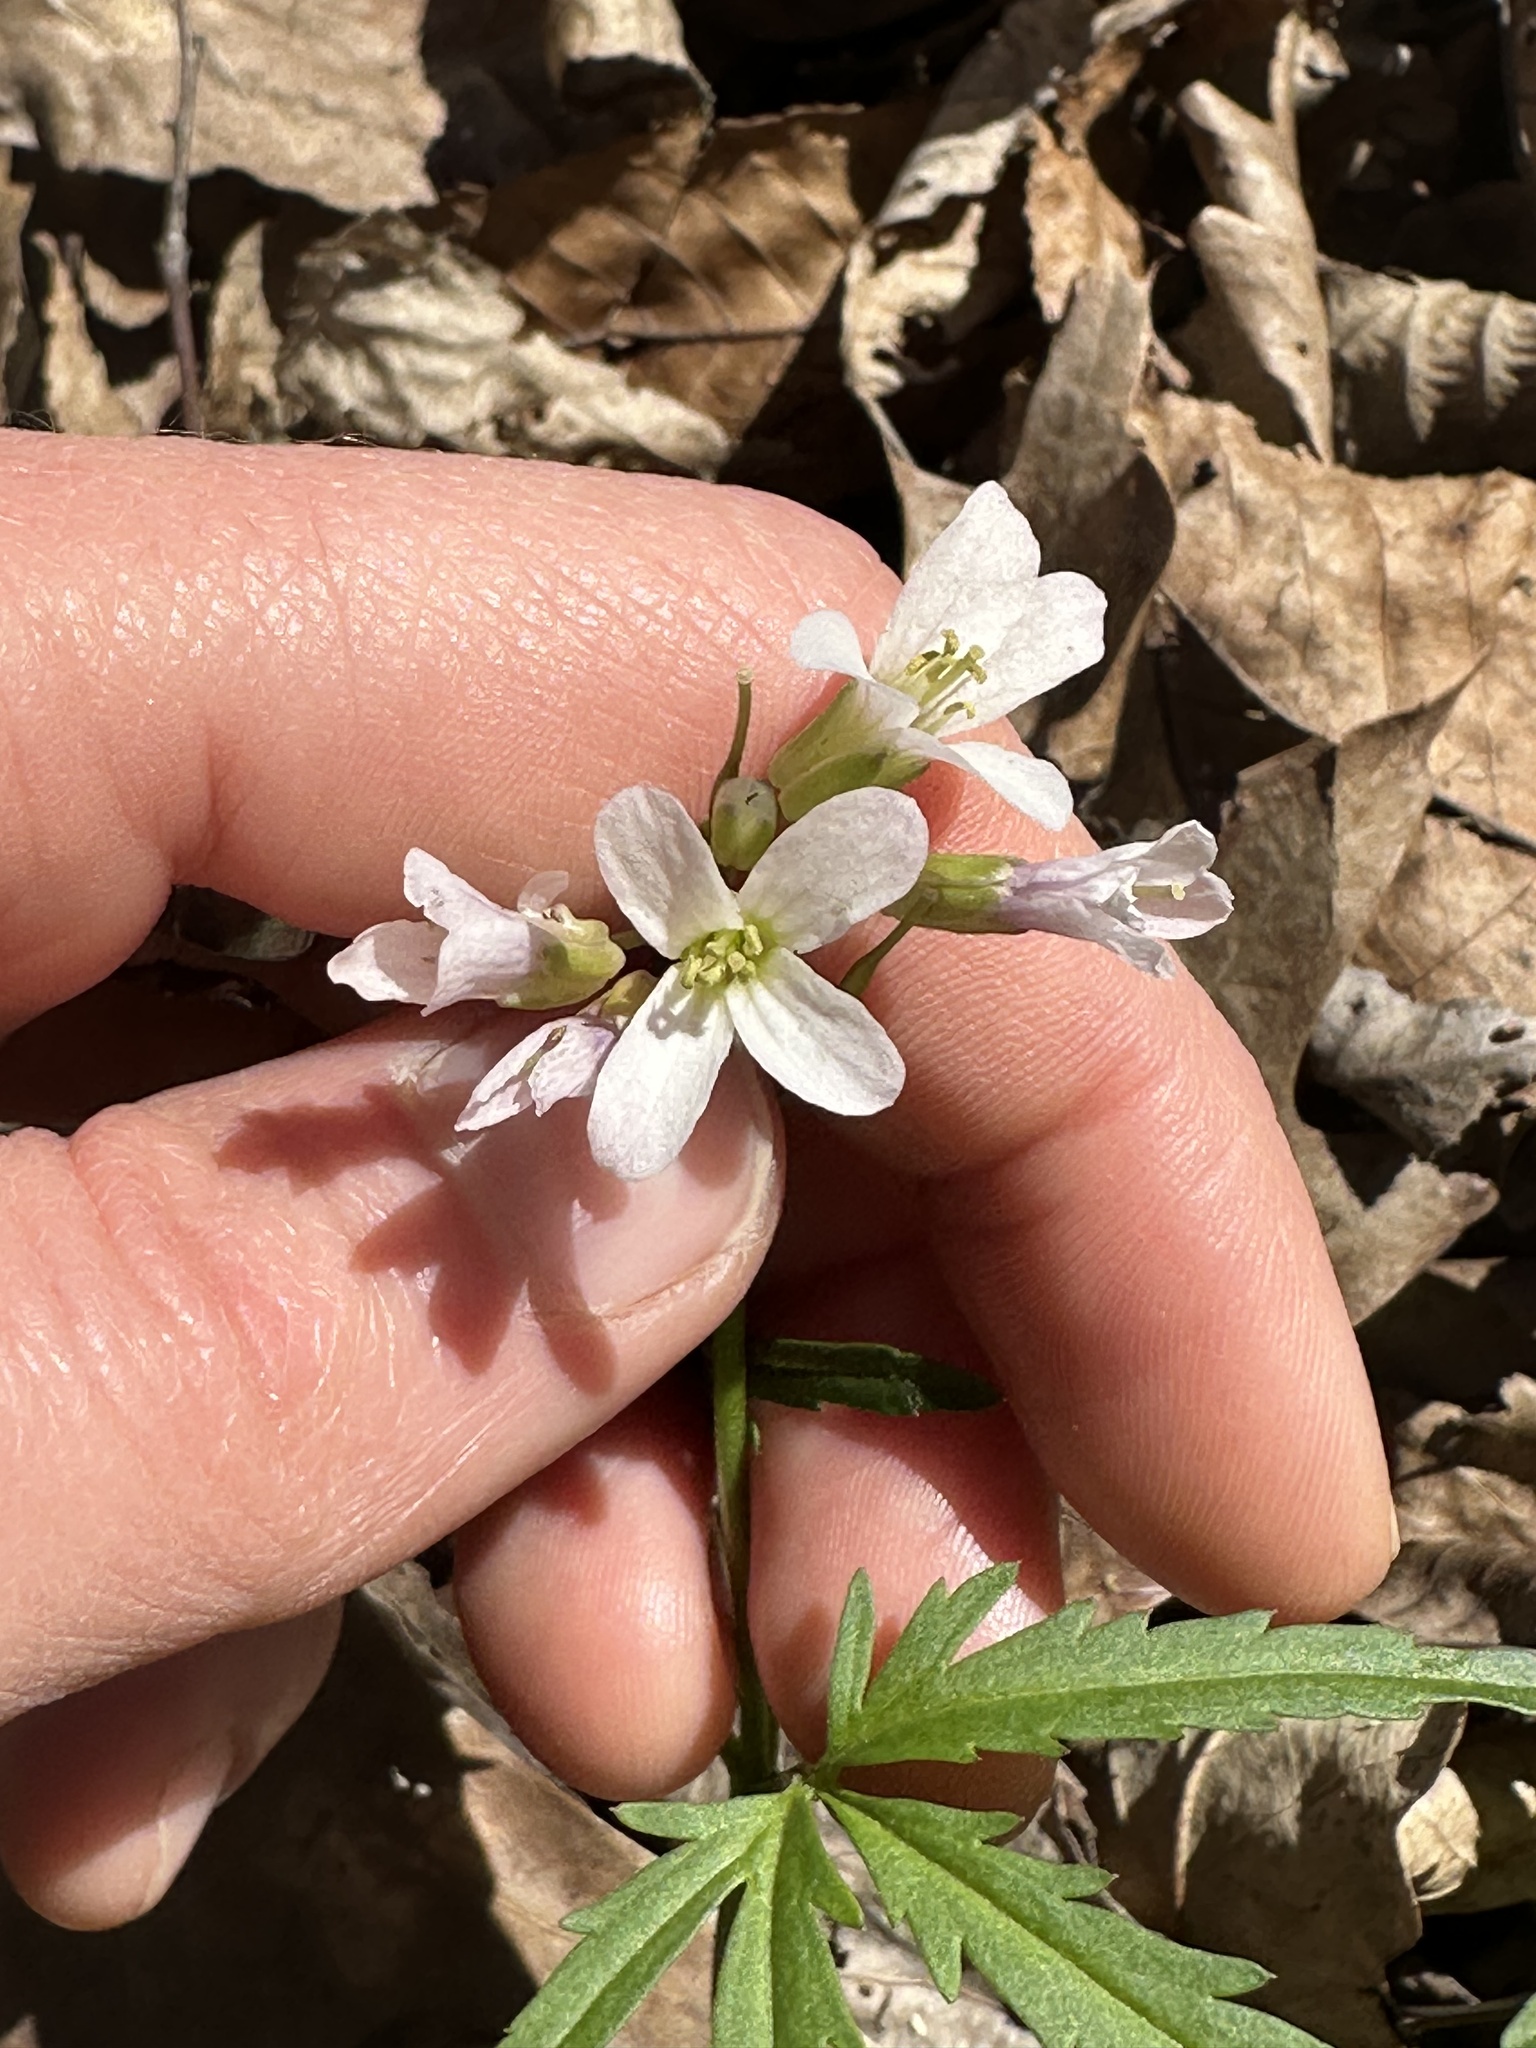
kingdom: Plantae
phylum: Tracheophyta
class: Magnoliopsida
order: Brassicales
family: Brassicaceae
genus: Cardamine
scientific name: Cardamine concatenata
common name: Cut-leaf toothcup
